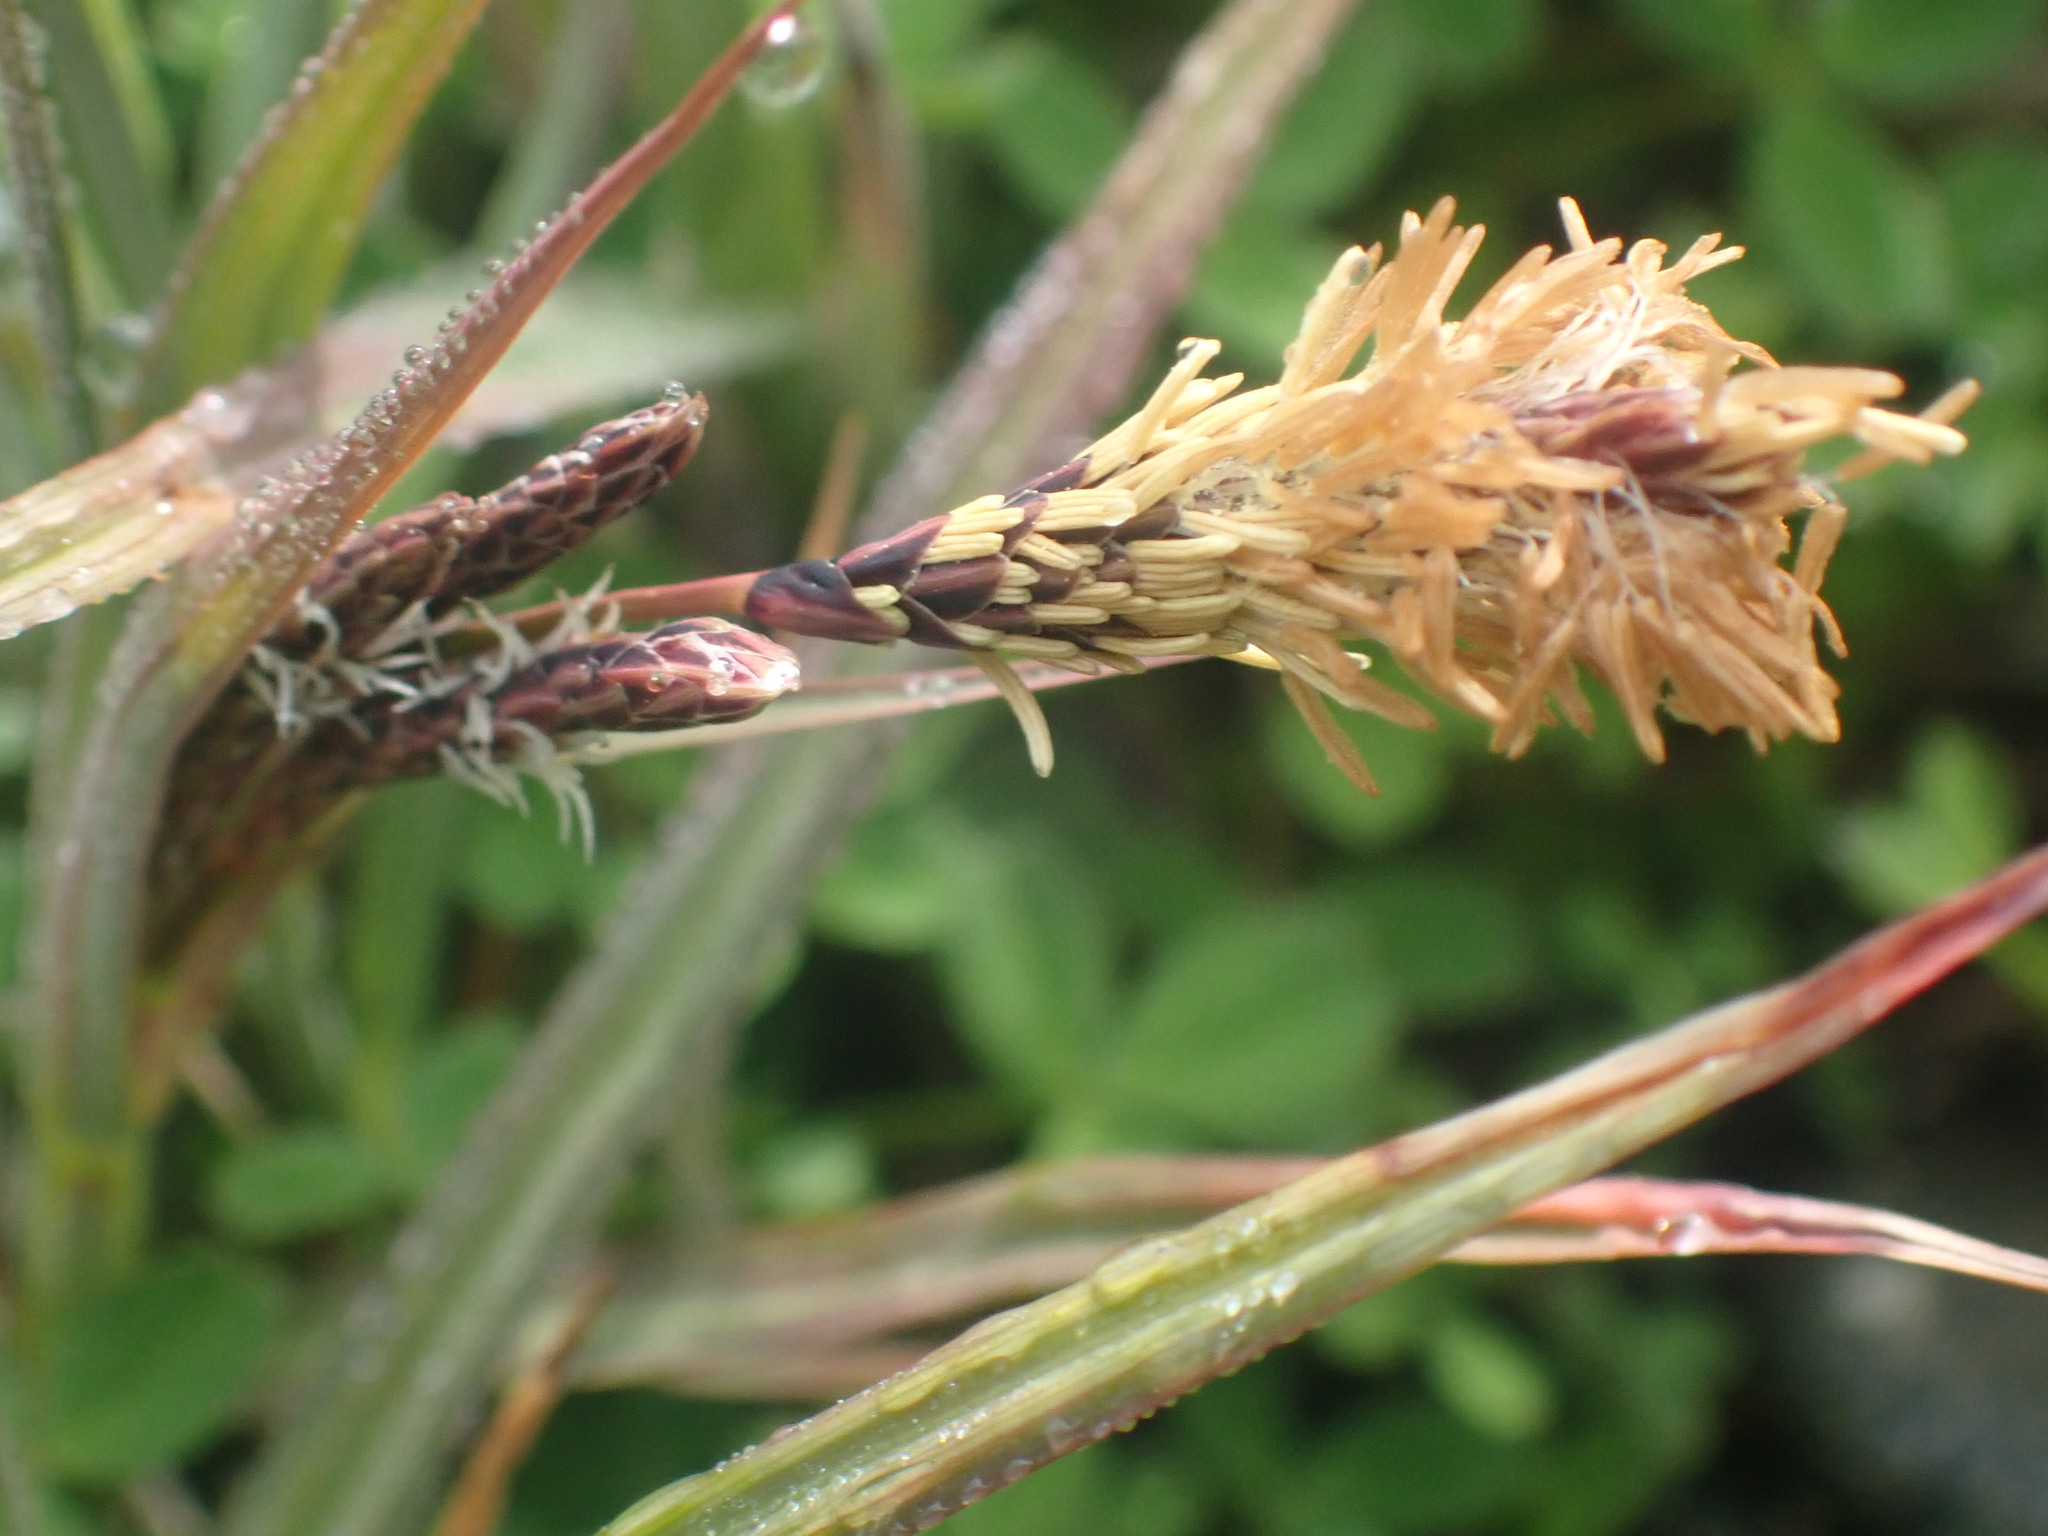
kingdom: Plantae
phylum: Tracheophyta
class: Liliopsida
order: Poales
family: Cyperaceae
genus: Carex
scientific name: Carex lyngbyei
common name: Lyngbye's sedge
